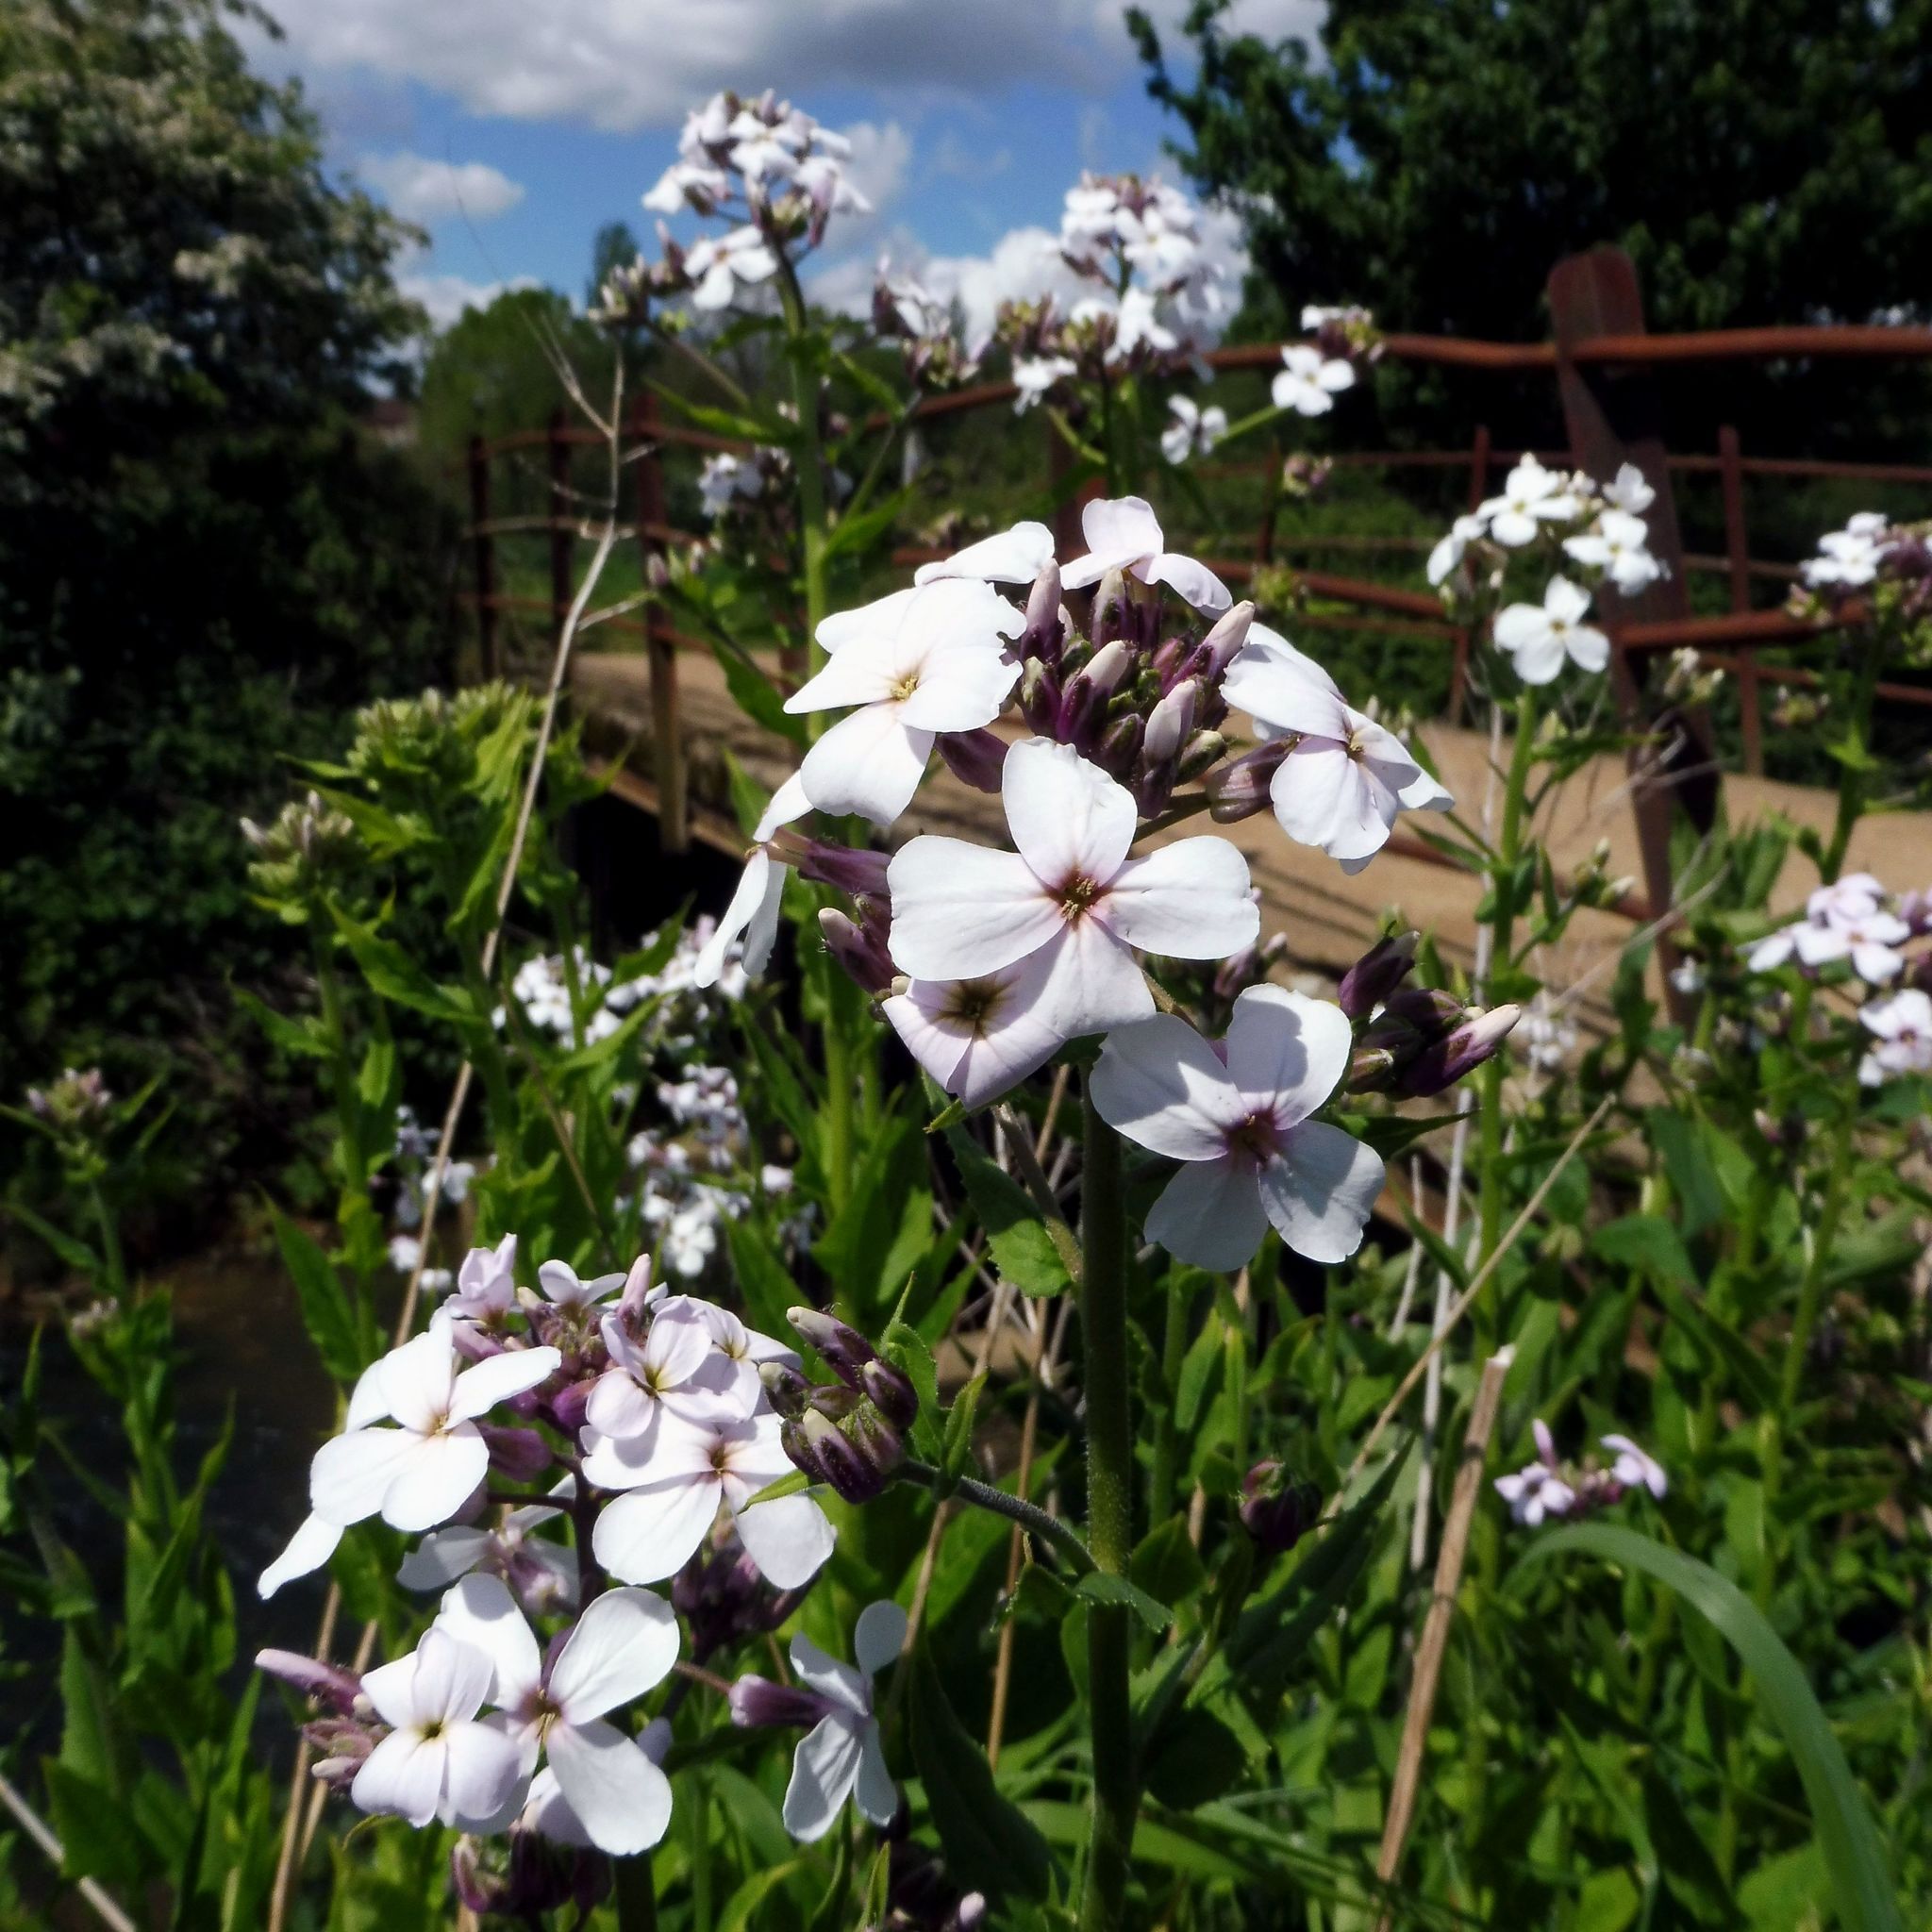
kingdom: Plantae
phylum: Tracheophyta
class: Magnoliopsida
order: Brassicales
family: Brassicaceae
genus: Hesperis
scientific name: Hesperis matronalis
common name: Dame's-violet
